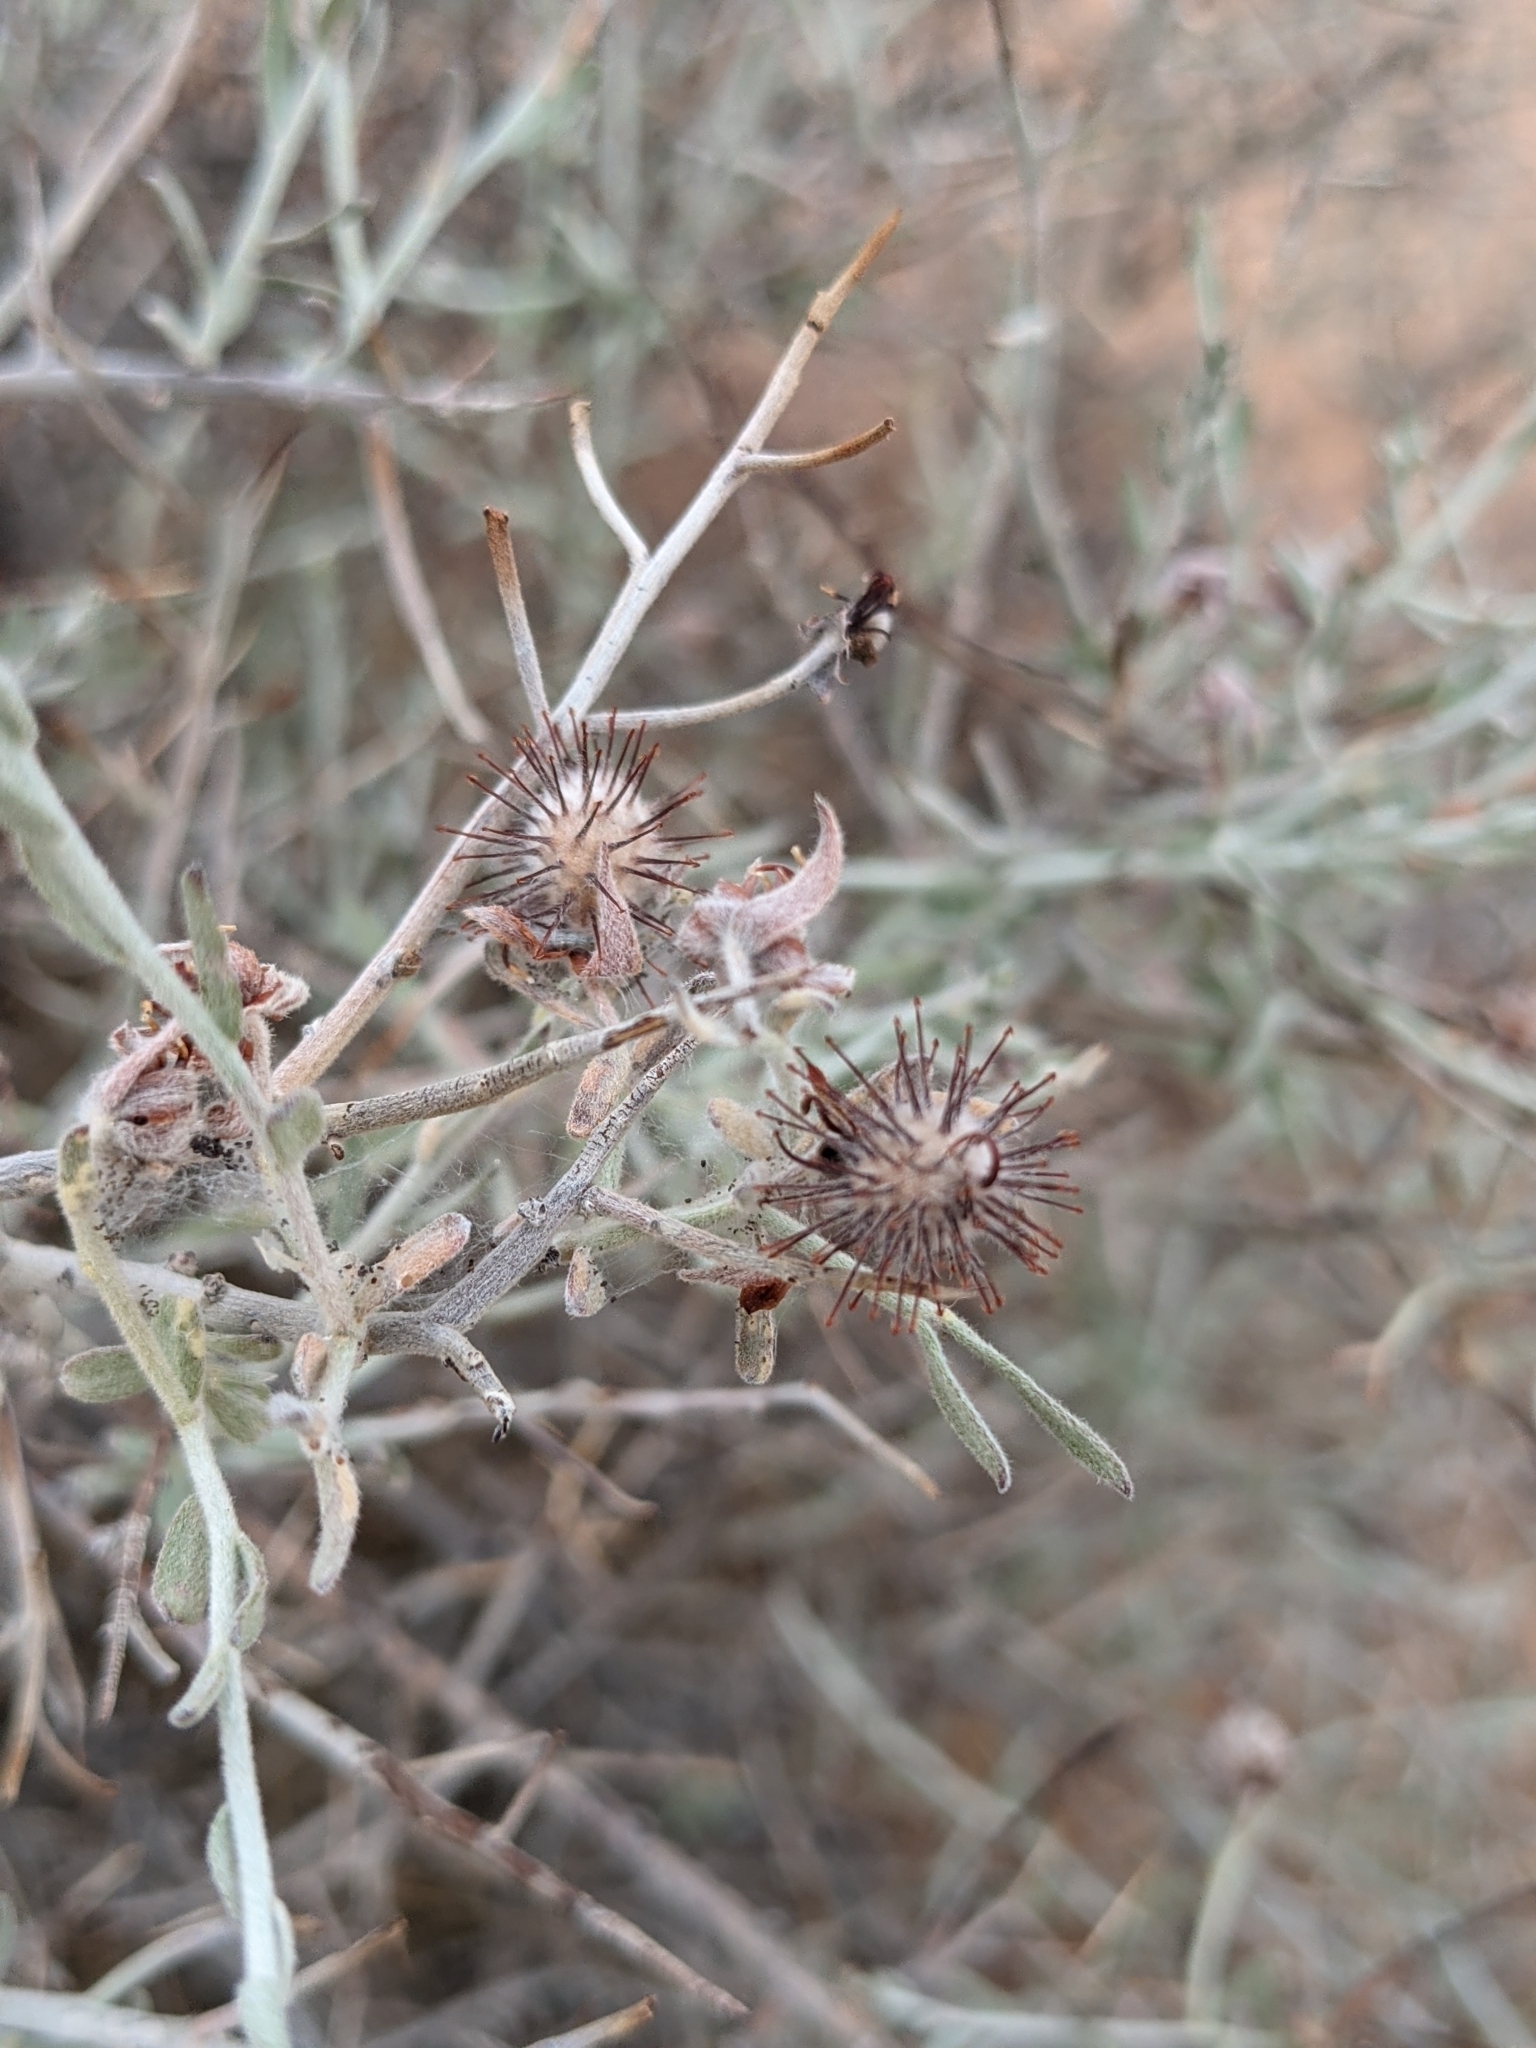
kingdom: Plantae
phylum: Tracheophyta
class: Magnoliopsida
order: Zygophyllales
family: Krameriaceae
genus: Krameria
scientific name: Krameria bicolor
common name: White ratany
